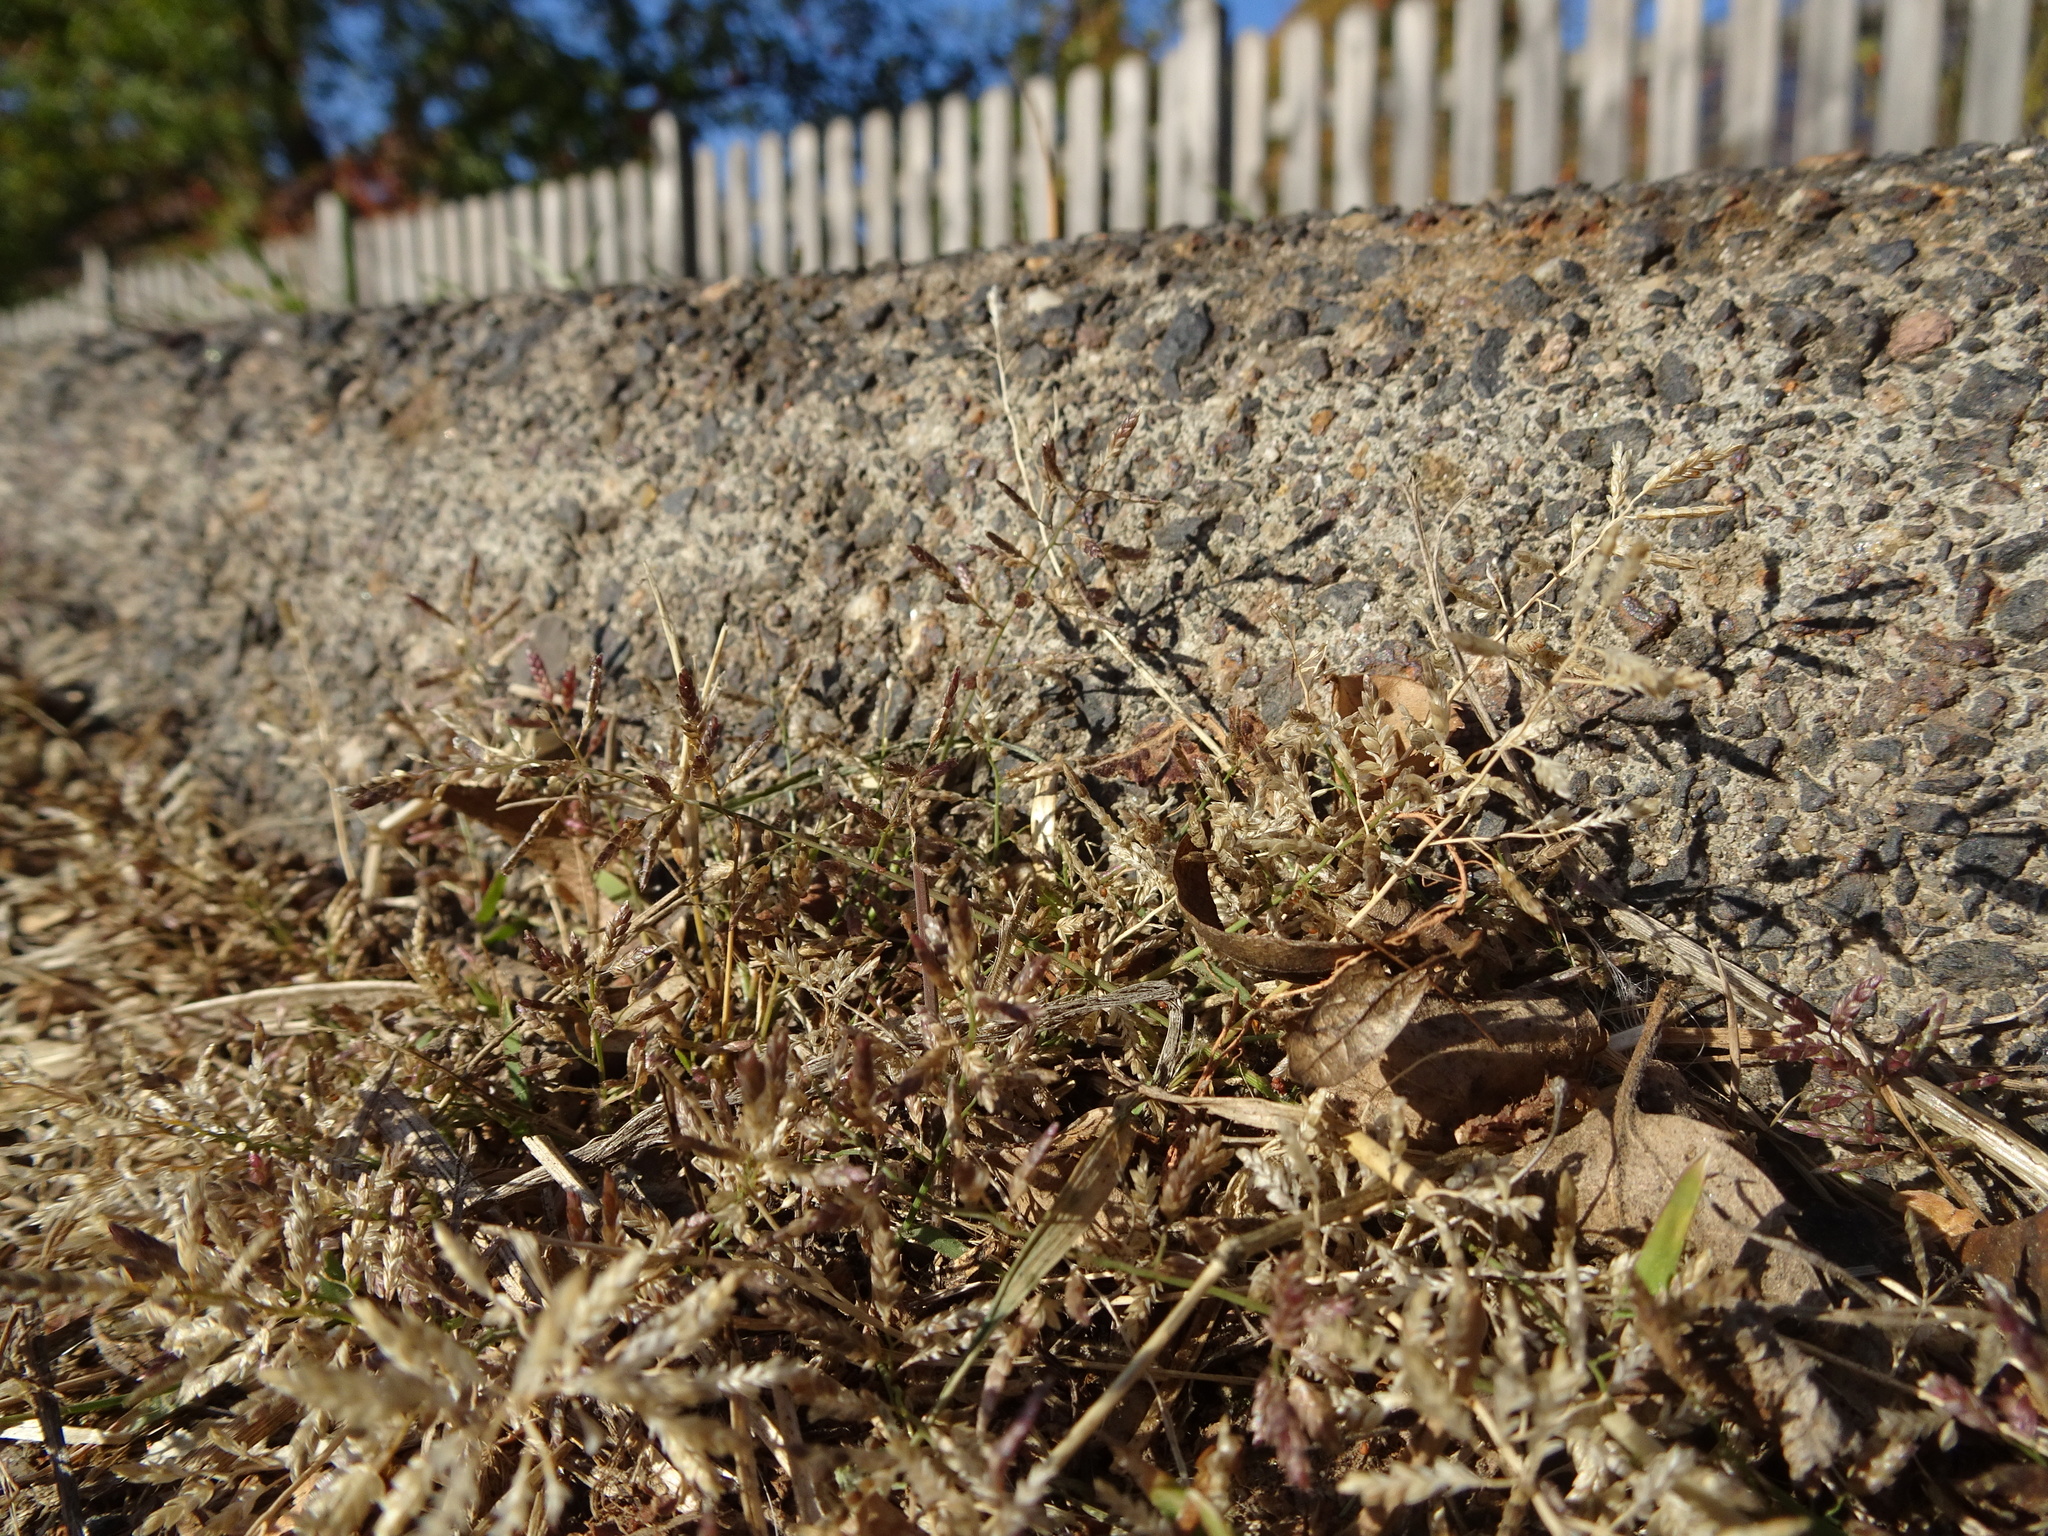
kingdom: Plantae
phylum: Tracheophyta
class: Liliopsida
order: Poales
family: Poaceae
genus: Eragrostis
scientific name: Eragrostis minor
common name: Small love-grass
